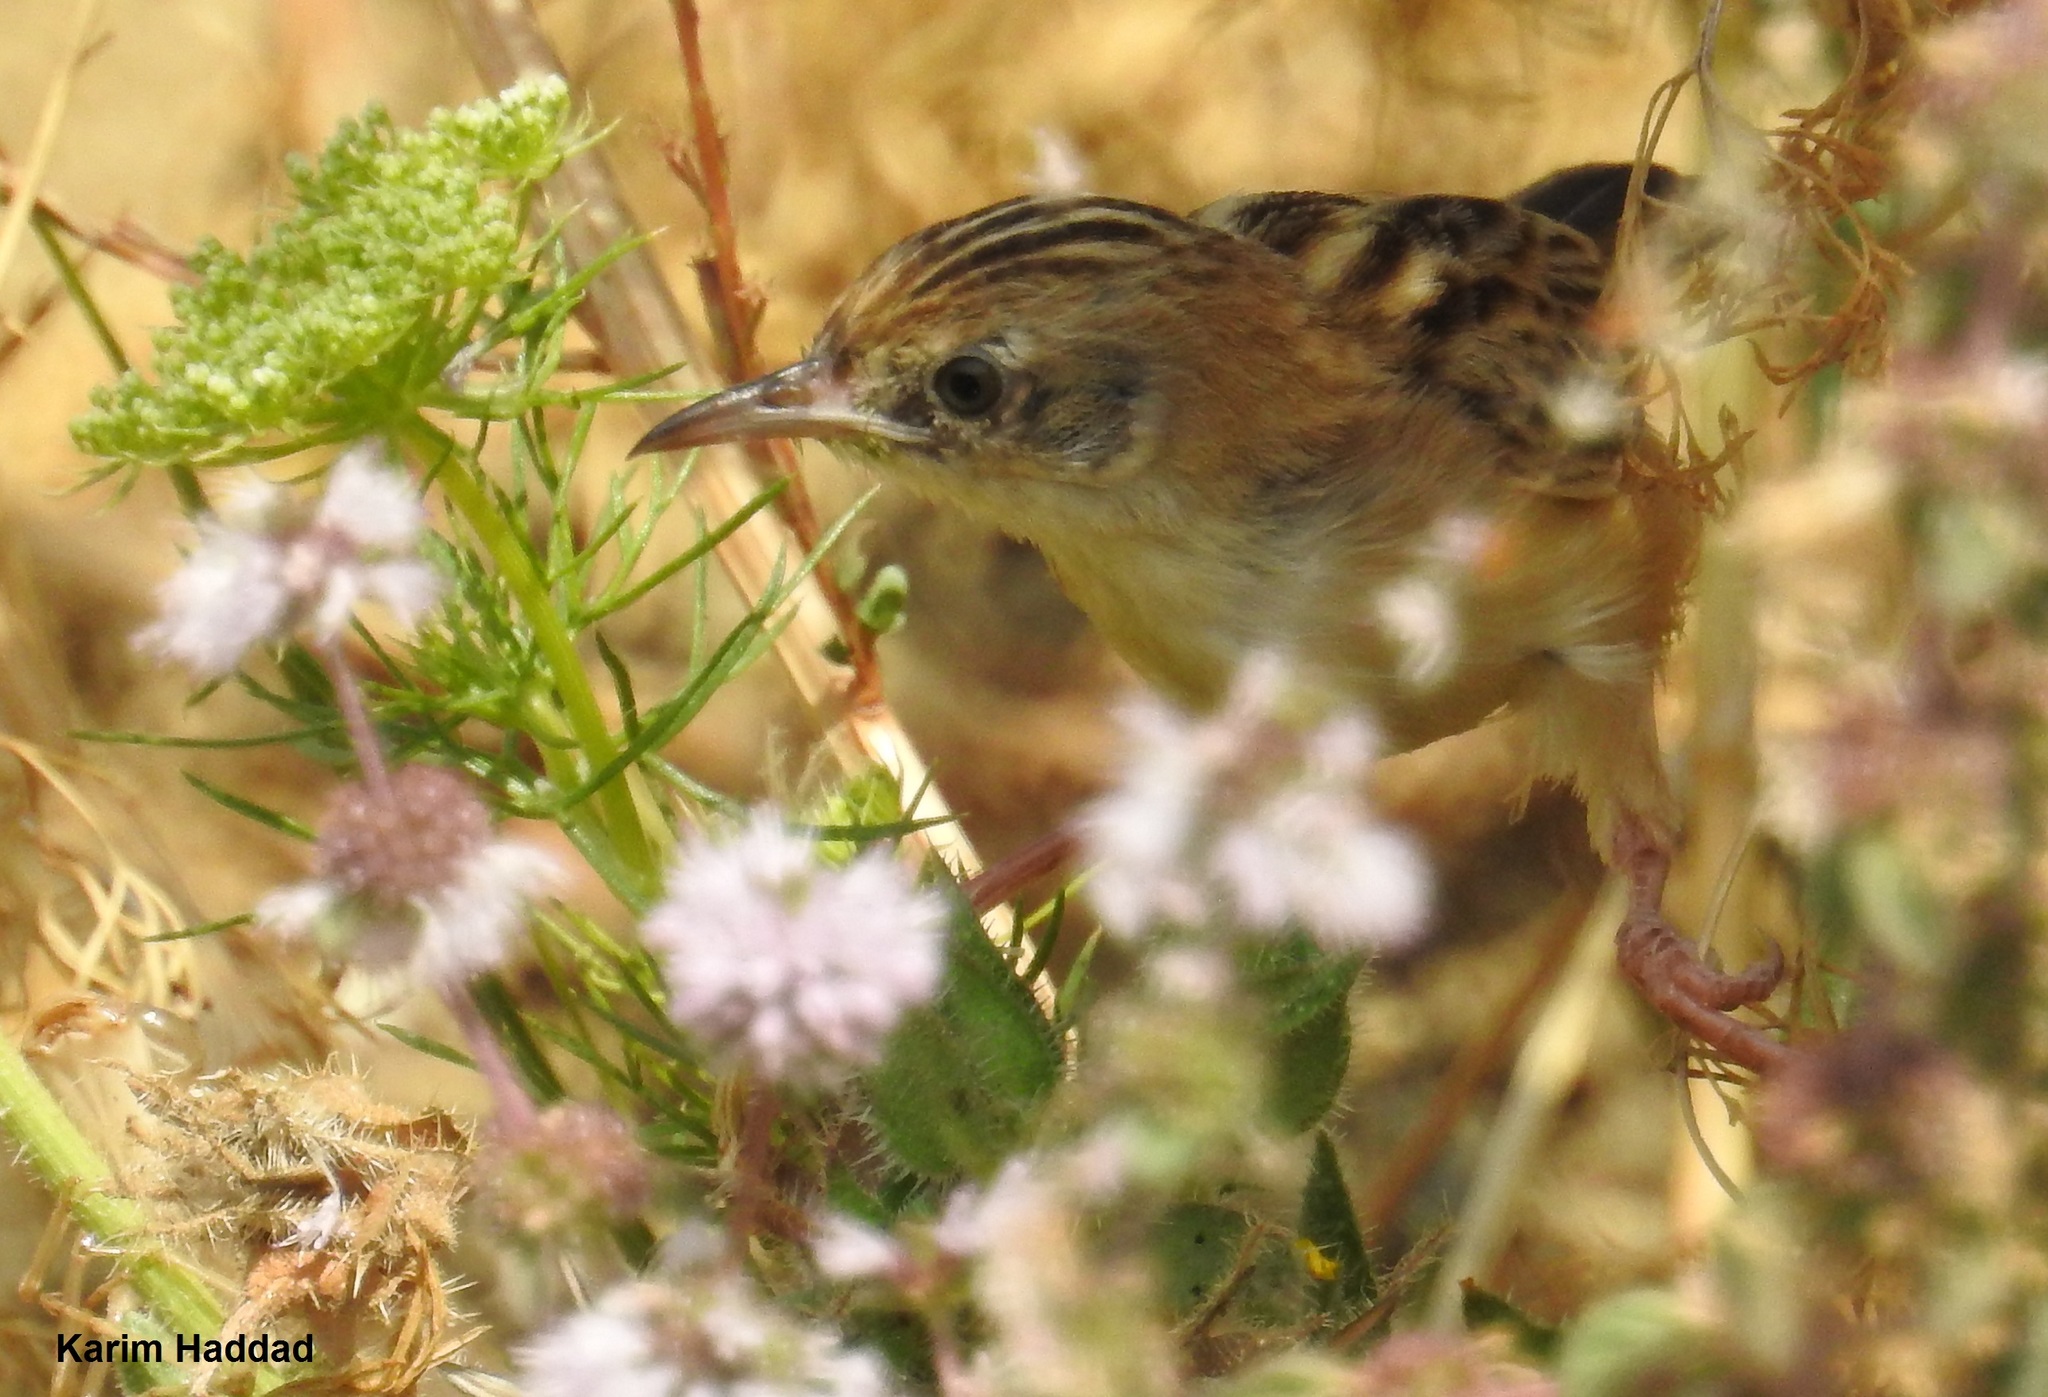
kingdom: Animalia
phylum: Chordata
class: Aves
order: Passeriformes
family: Cisticolidae
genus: Cisticola
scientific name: Cisticola juncidis
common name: Zitting cisticola
